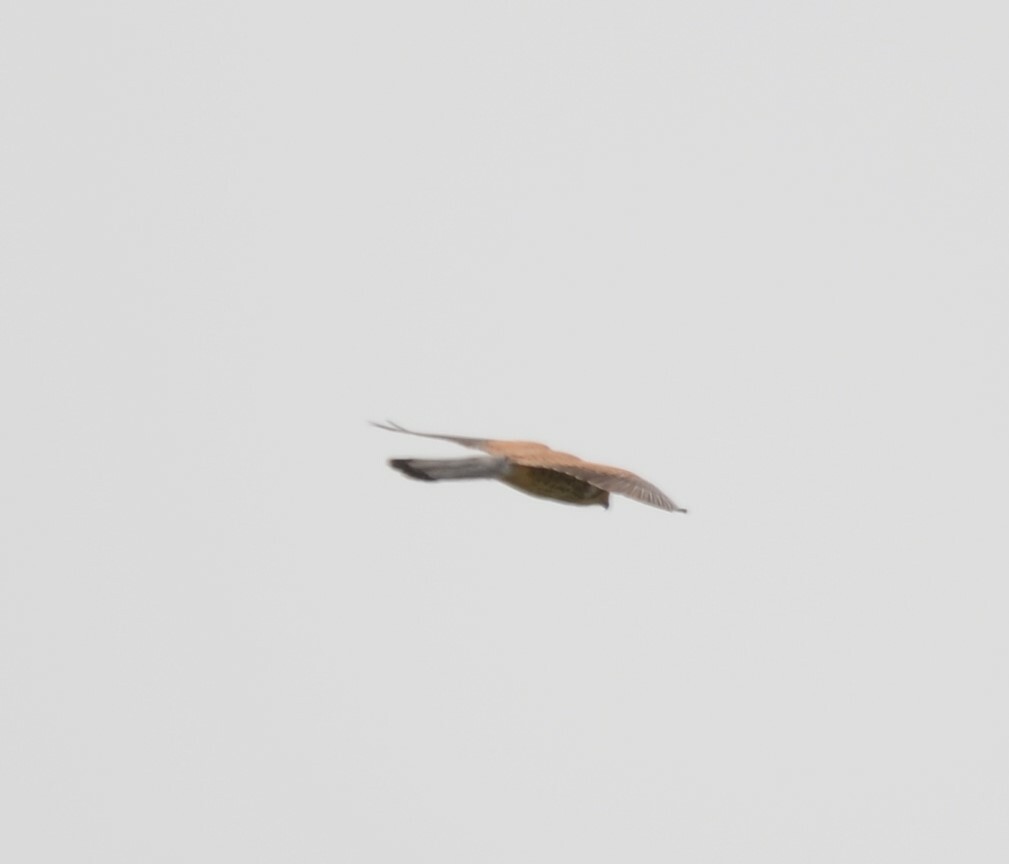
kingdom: Animalia
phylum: Chordata
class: Aves
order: Falconiformes
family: Falconidae
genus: Falco
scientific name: Falco tinnunculus
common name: Common kestrel
